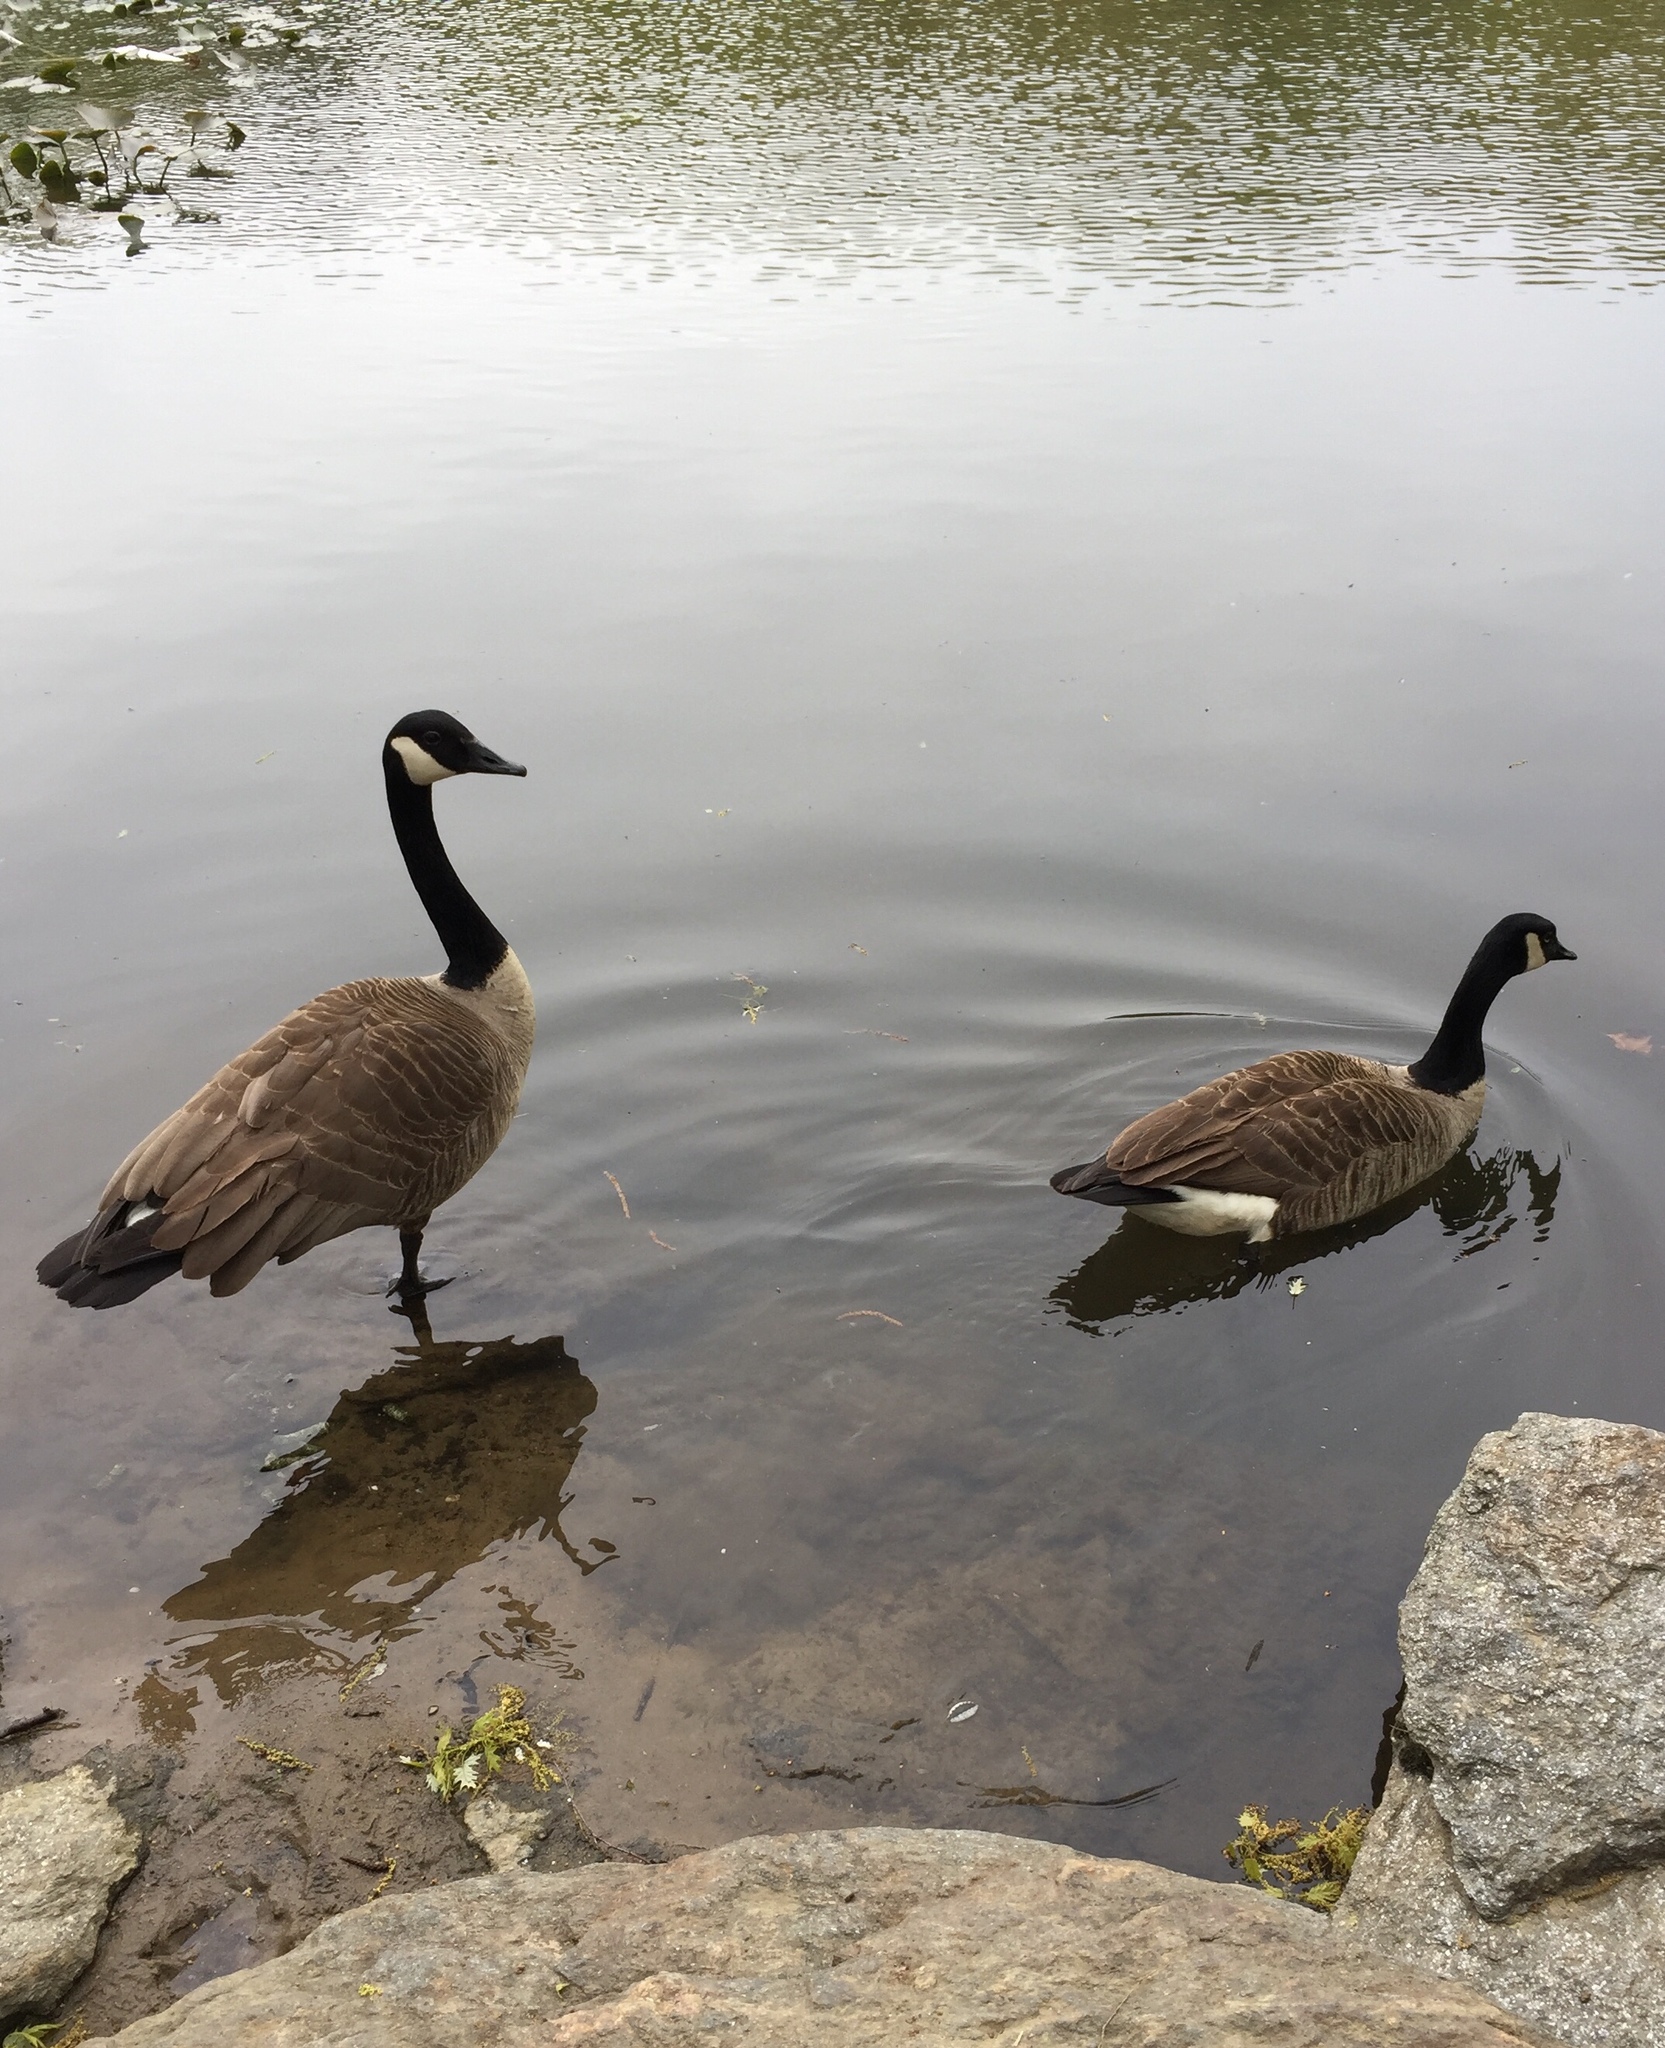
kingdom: Animalia
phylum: Chordata
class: Aves
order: Anseriformes
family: Anatidae
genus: Branta
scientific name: Branta canadensis
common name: Canada goose
